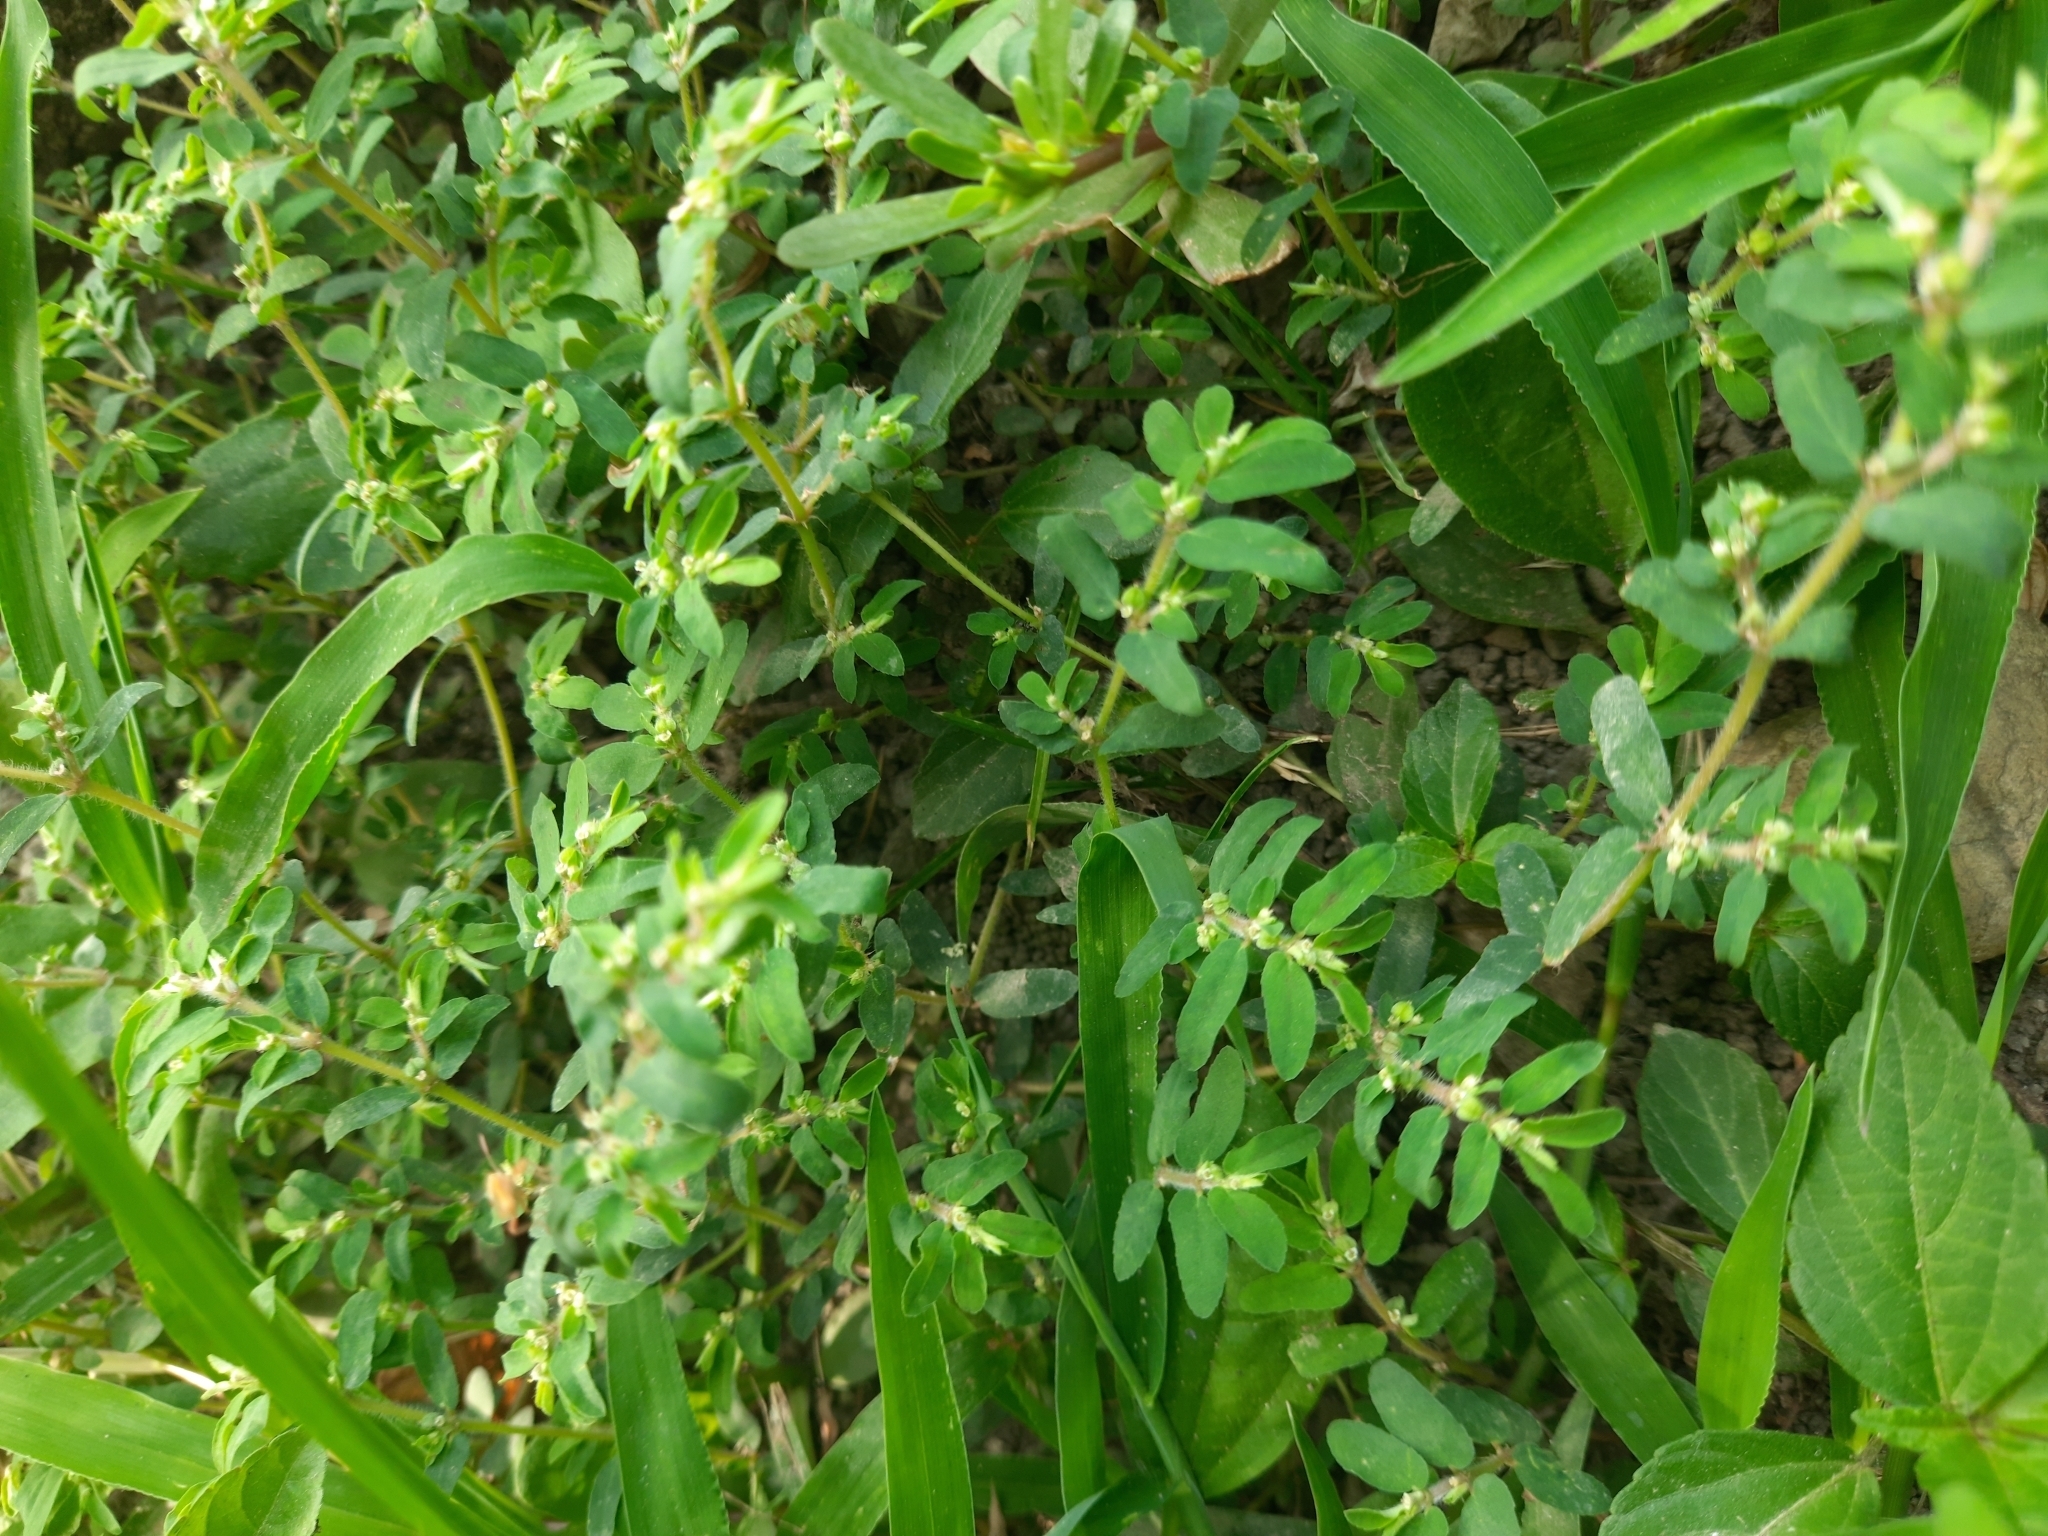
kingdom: Plantae
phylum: Tracheophyta
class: Magnoliopsida
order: Malpighiales
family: Euphorbiaceae
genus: Euphorbia
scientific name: Euphorbia maculata
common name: Spotted spurge
